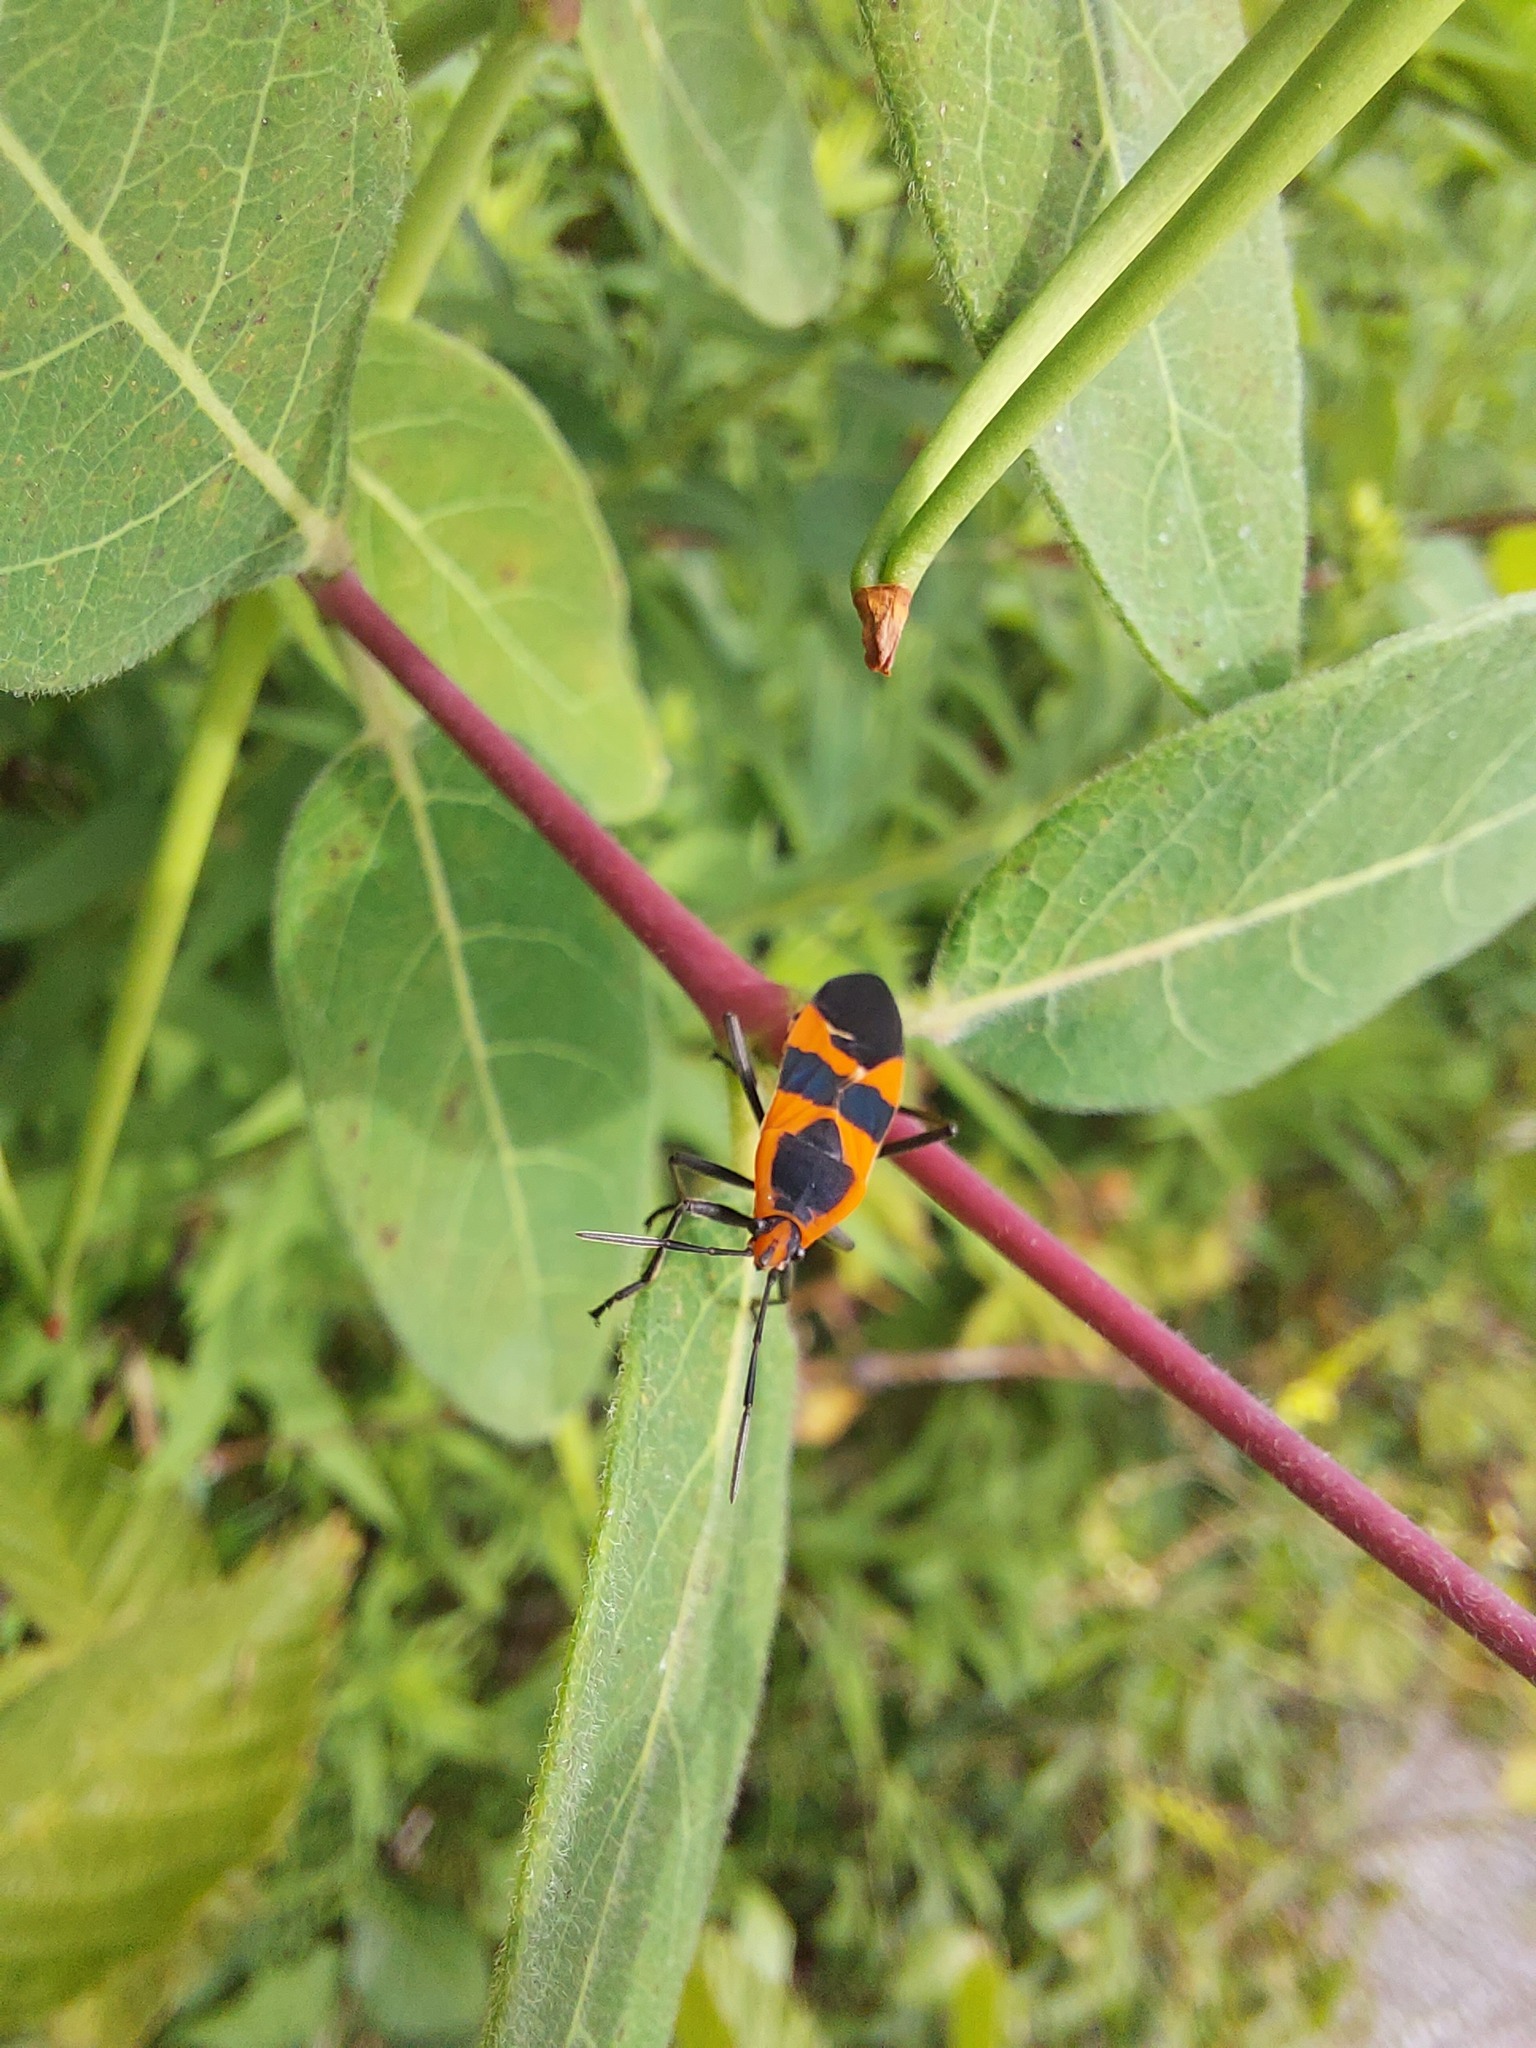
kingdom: Animalia
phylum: Arthropoda
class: Insecta
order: Hemiptera
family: Lygaeidae
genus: Oncopeltus
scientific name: Oncopeltus fasciatus
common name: Large milkweed bug
